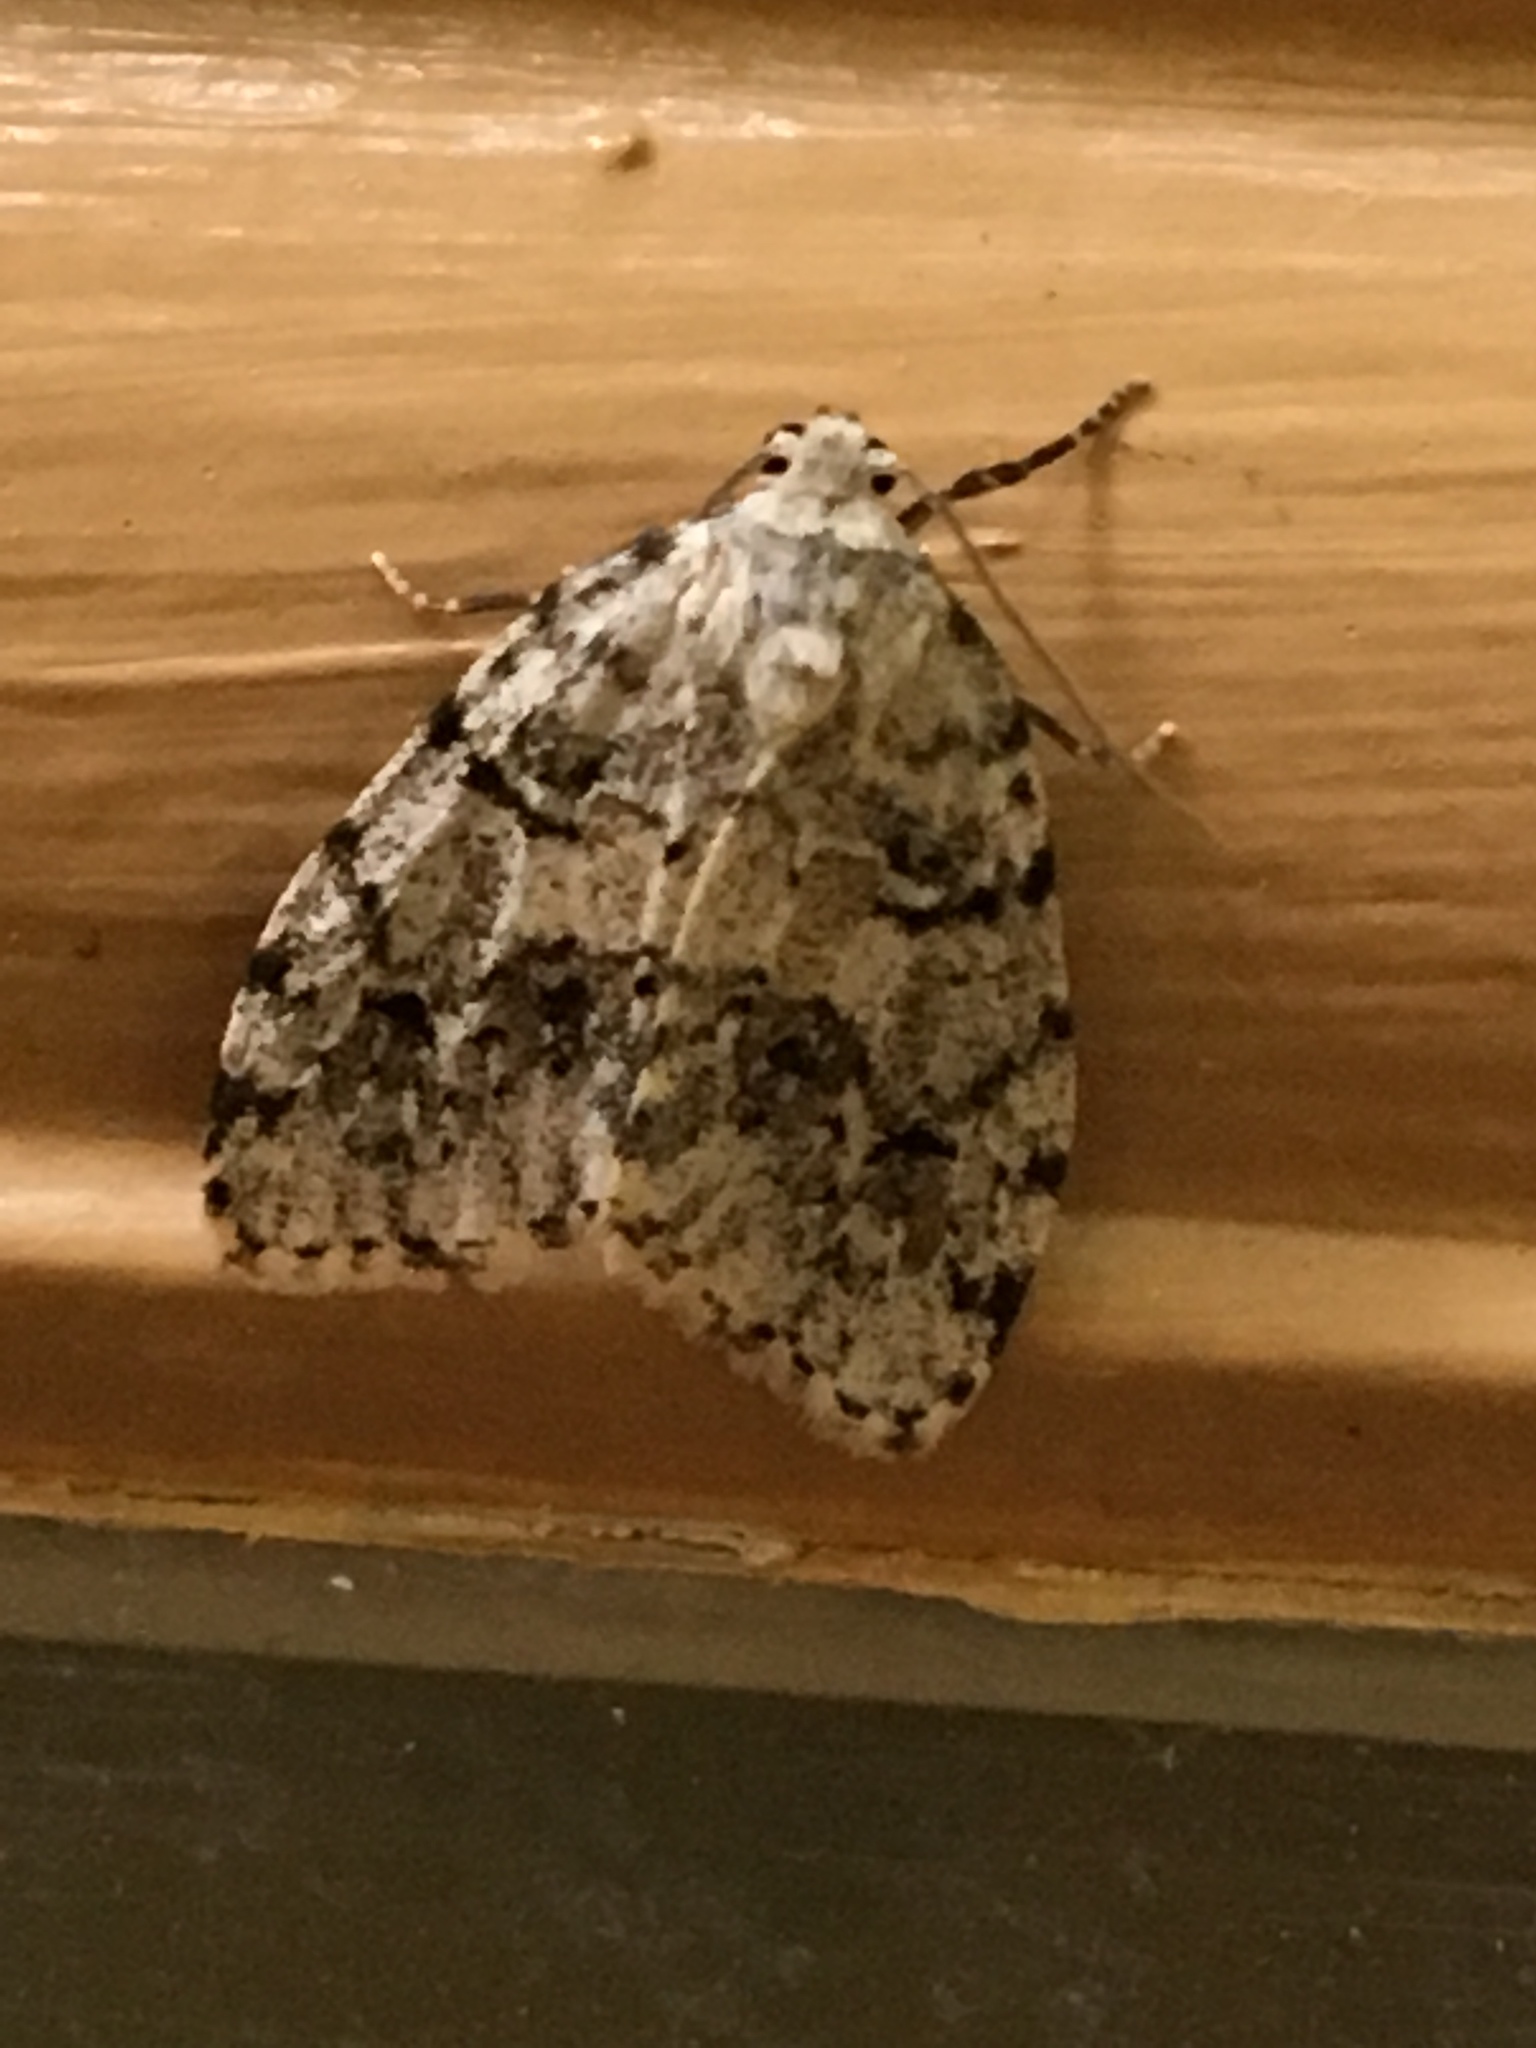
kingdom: Animalia
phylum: Arthropoda
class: Insecta
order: Lepidoptera
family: Erebidae
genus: Clemensia
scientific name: Clemensia albata
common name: Little white lichen moth
